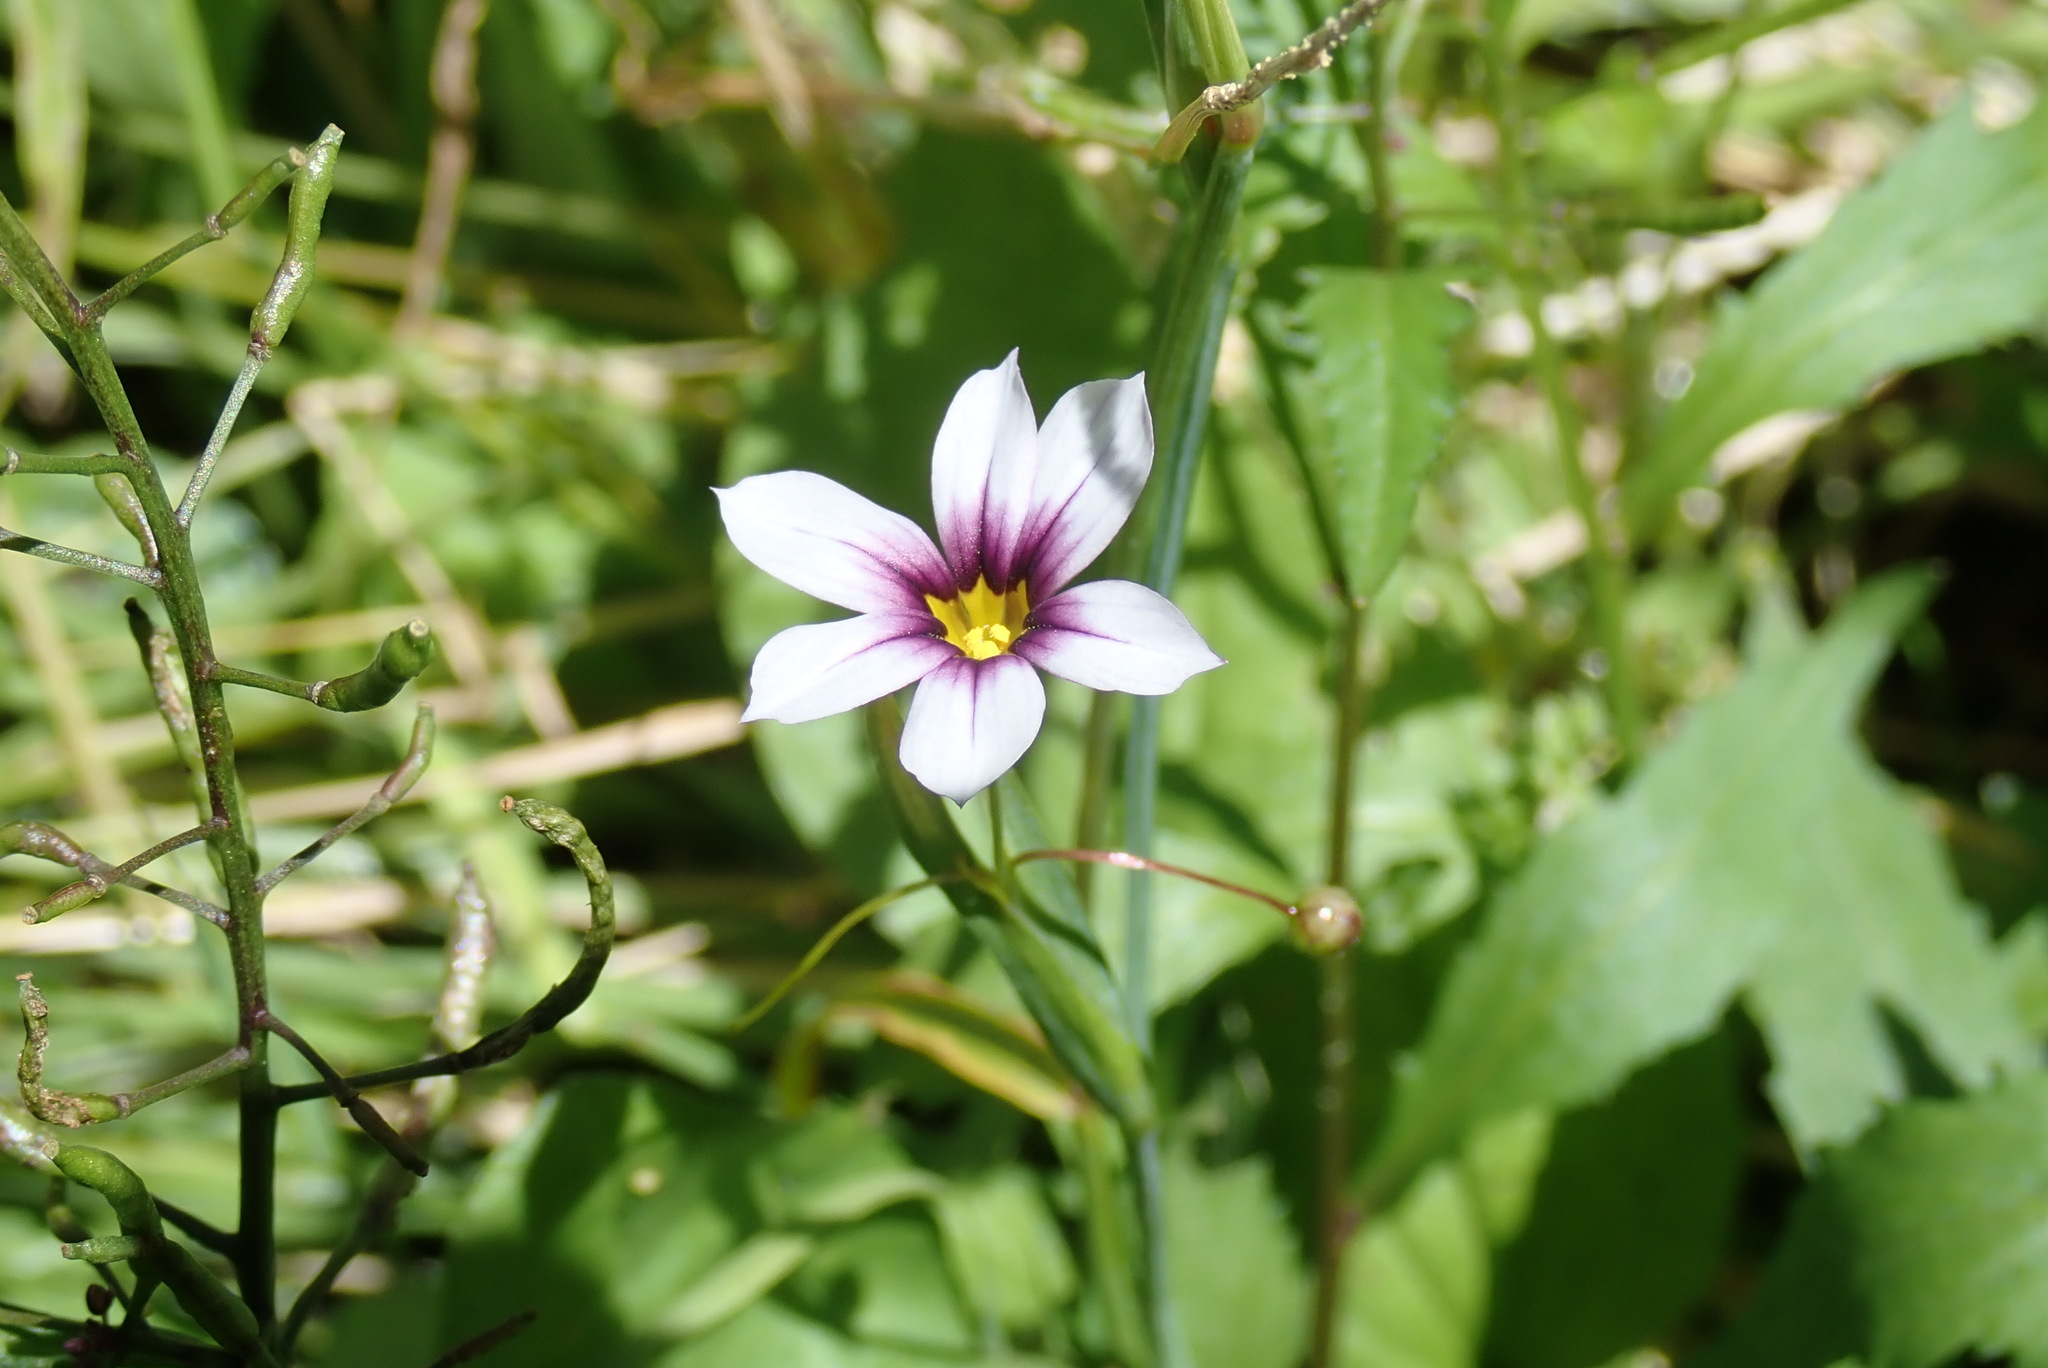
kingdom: Plantae
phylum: Tracheophyta
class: Liliopsida
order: Asparagales
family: Iridaceae
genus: Sisyrinchium
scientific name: Sisyrinchium atlanticum
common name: Eastern blue-eyed-grass
